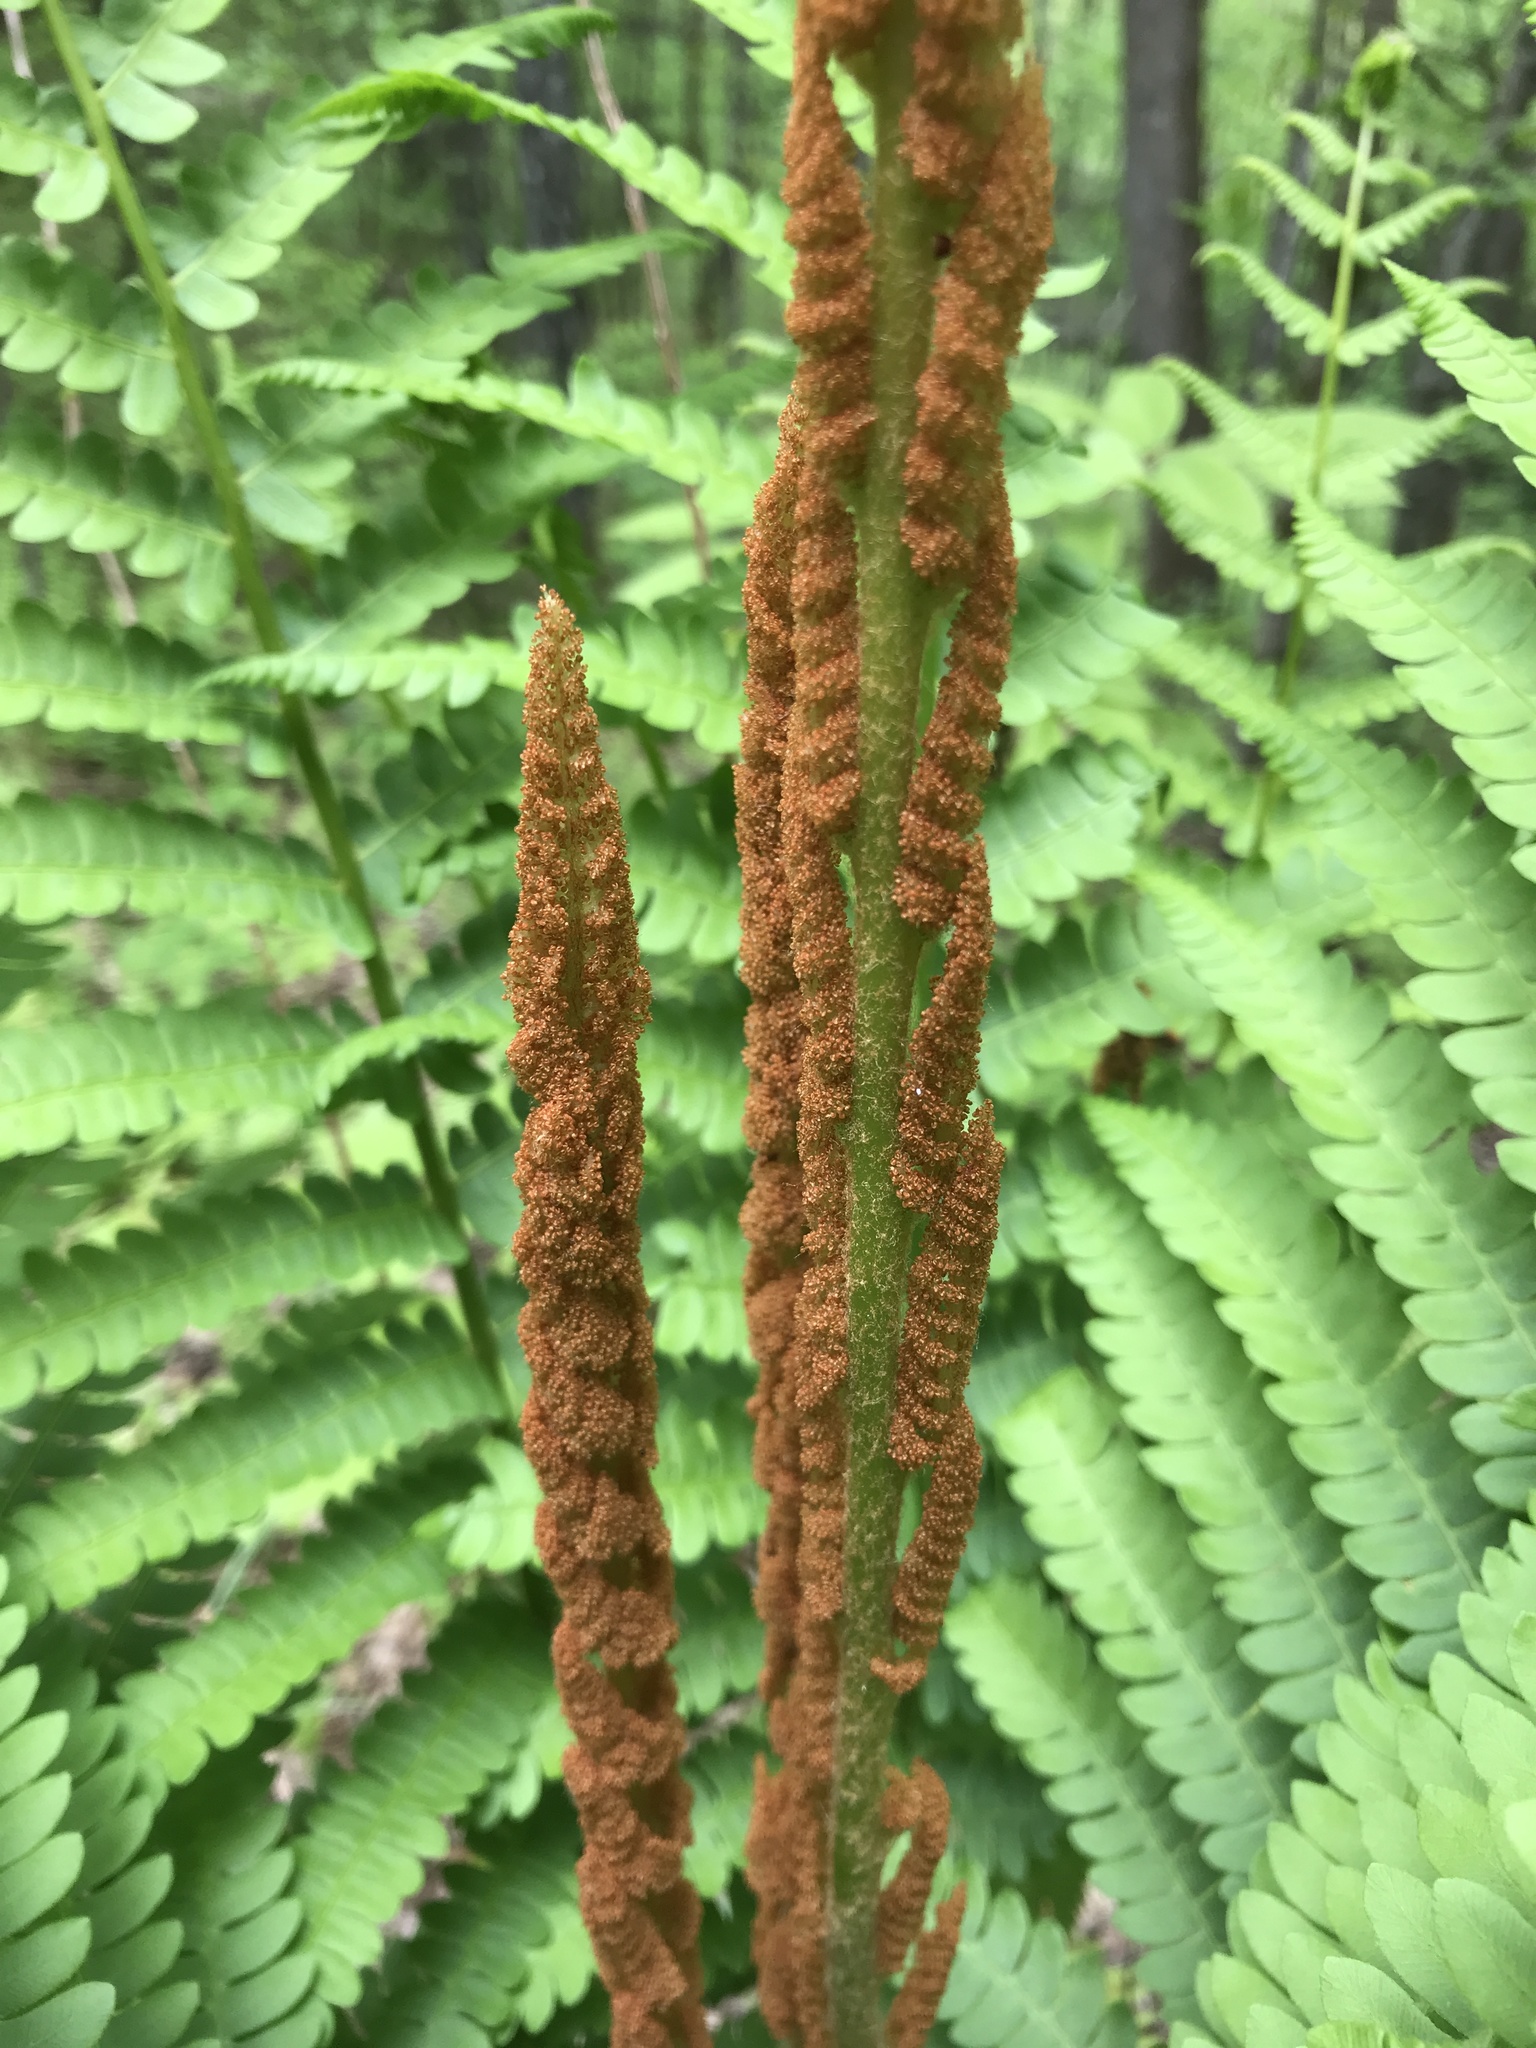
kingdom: Plantae
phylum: Tracheophyta
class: Polypodiopsida
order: Osmundales
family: Osmundaceae
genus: Osmundastrum
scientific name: Osmundastrum cinnamomeum
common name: Cinnamon fern
